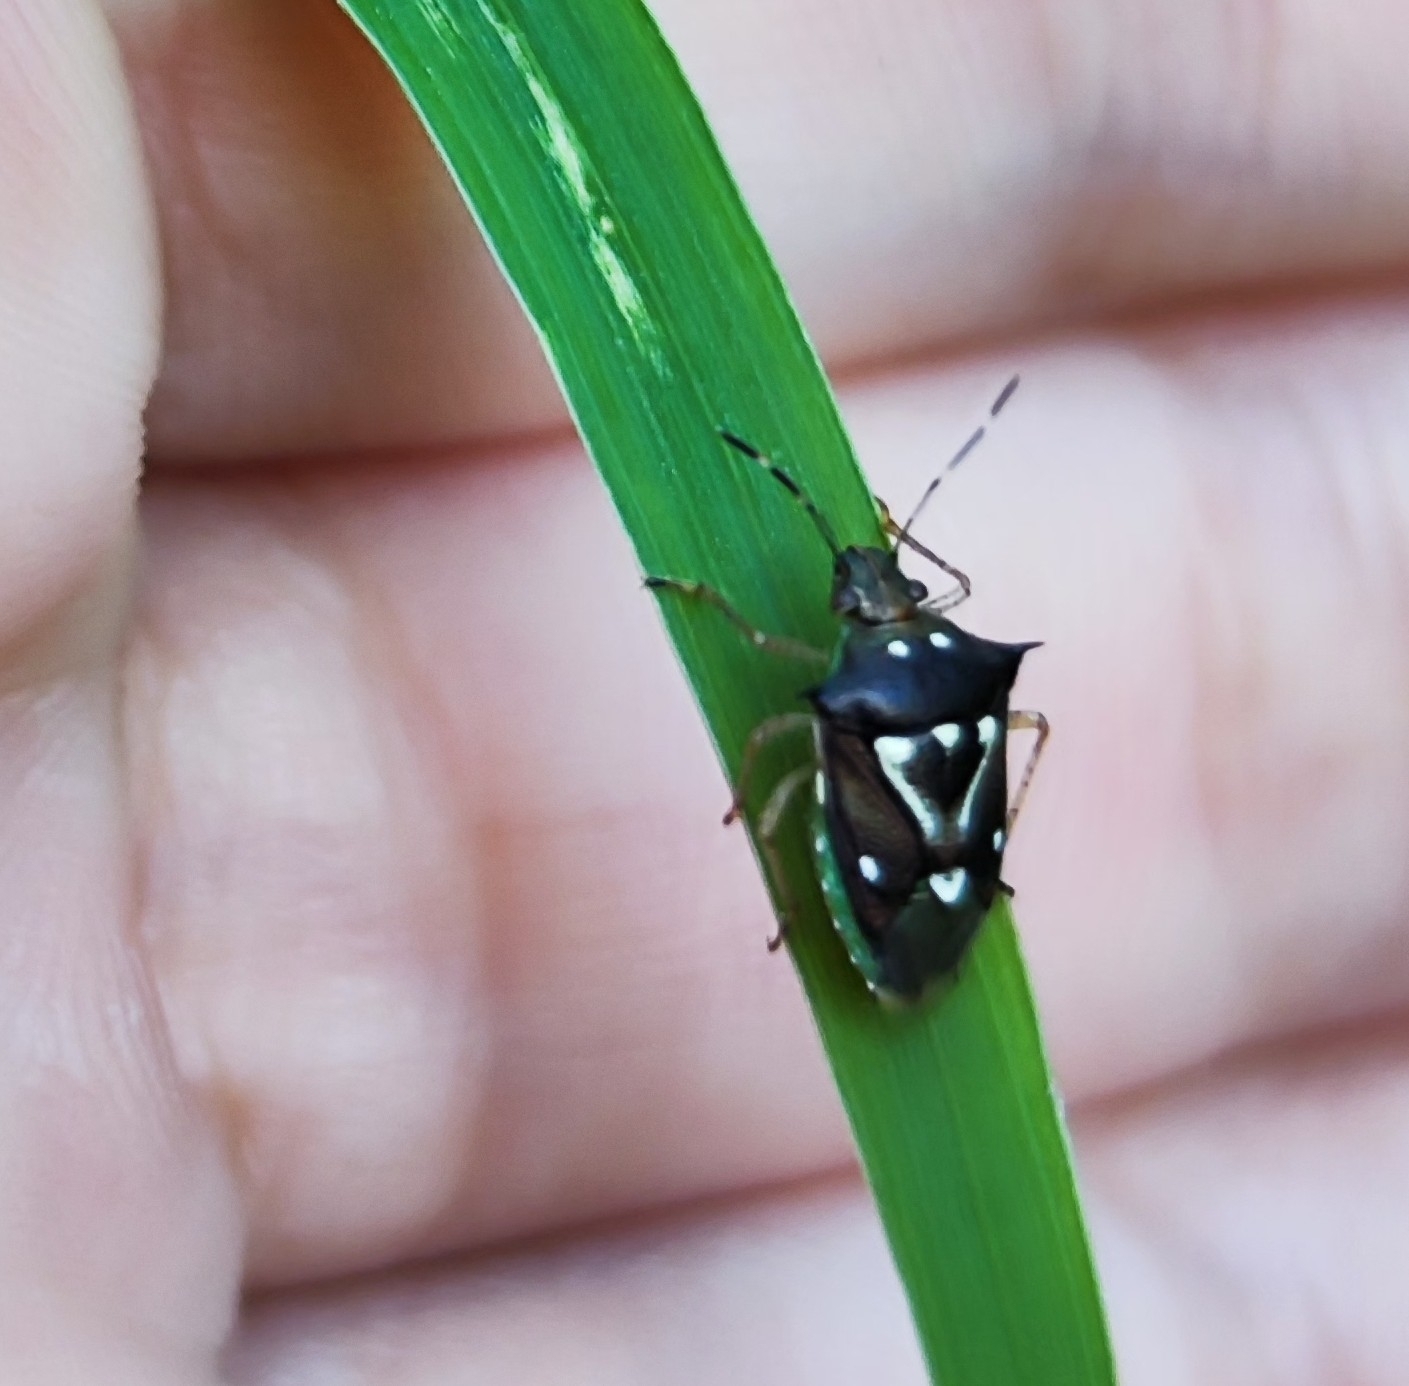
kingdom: Animalia
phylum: Arthropoda
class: Insecta
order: Hemiptera
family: Pentatomidae
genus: Mormidea
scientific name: Mormidea ypsilon
